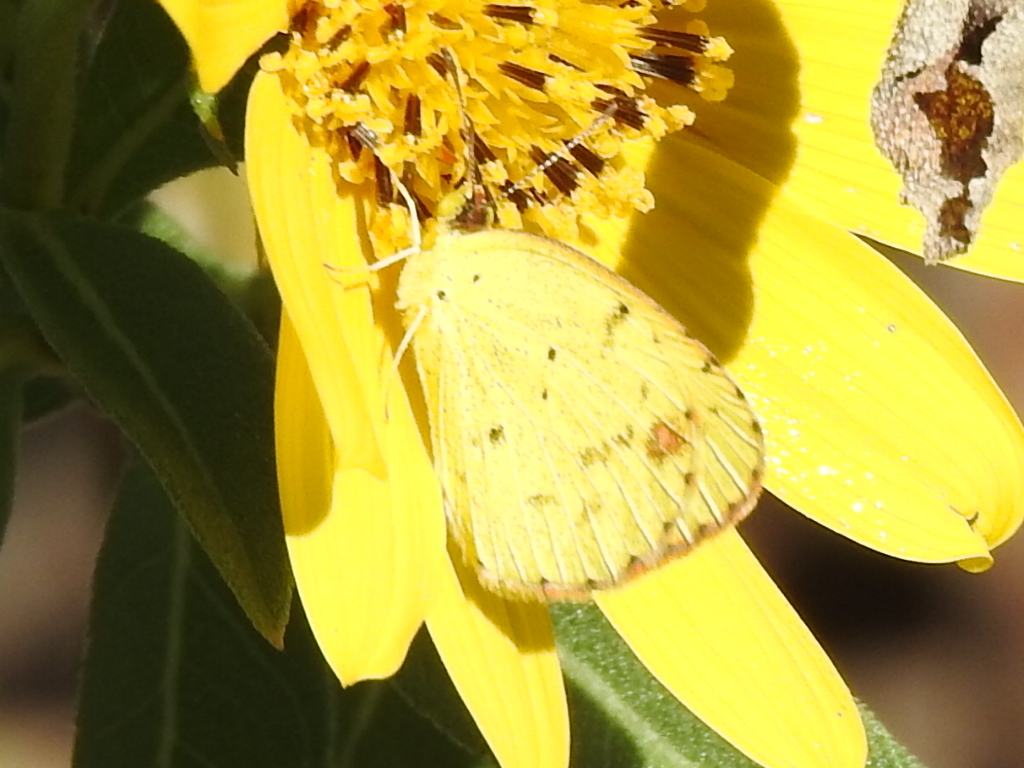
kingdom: Animalia
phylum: Arthropoda
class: Insecta
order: Lepidoptera
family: Pieridae
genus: Pyrisitia
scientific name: Pyrisitia lisa
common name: Little yellow
